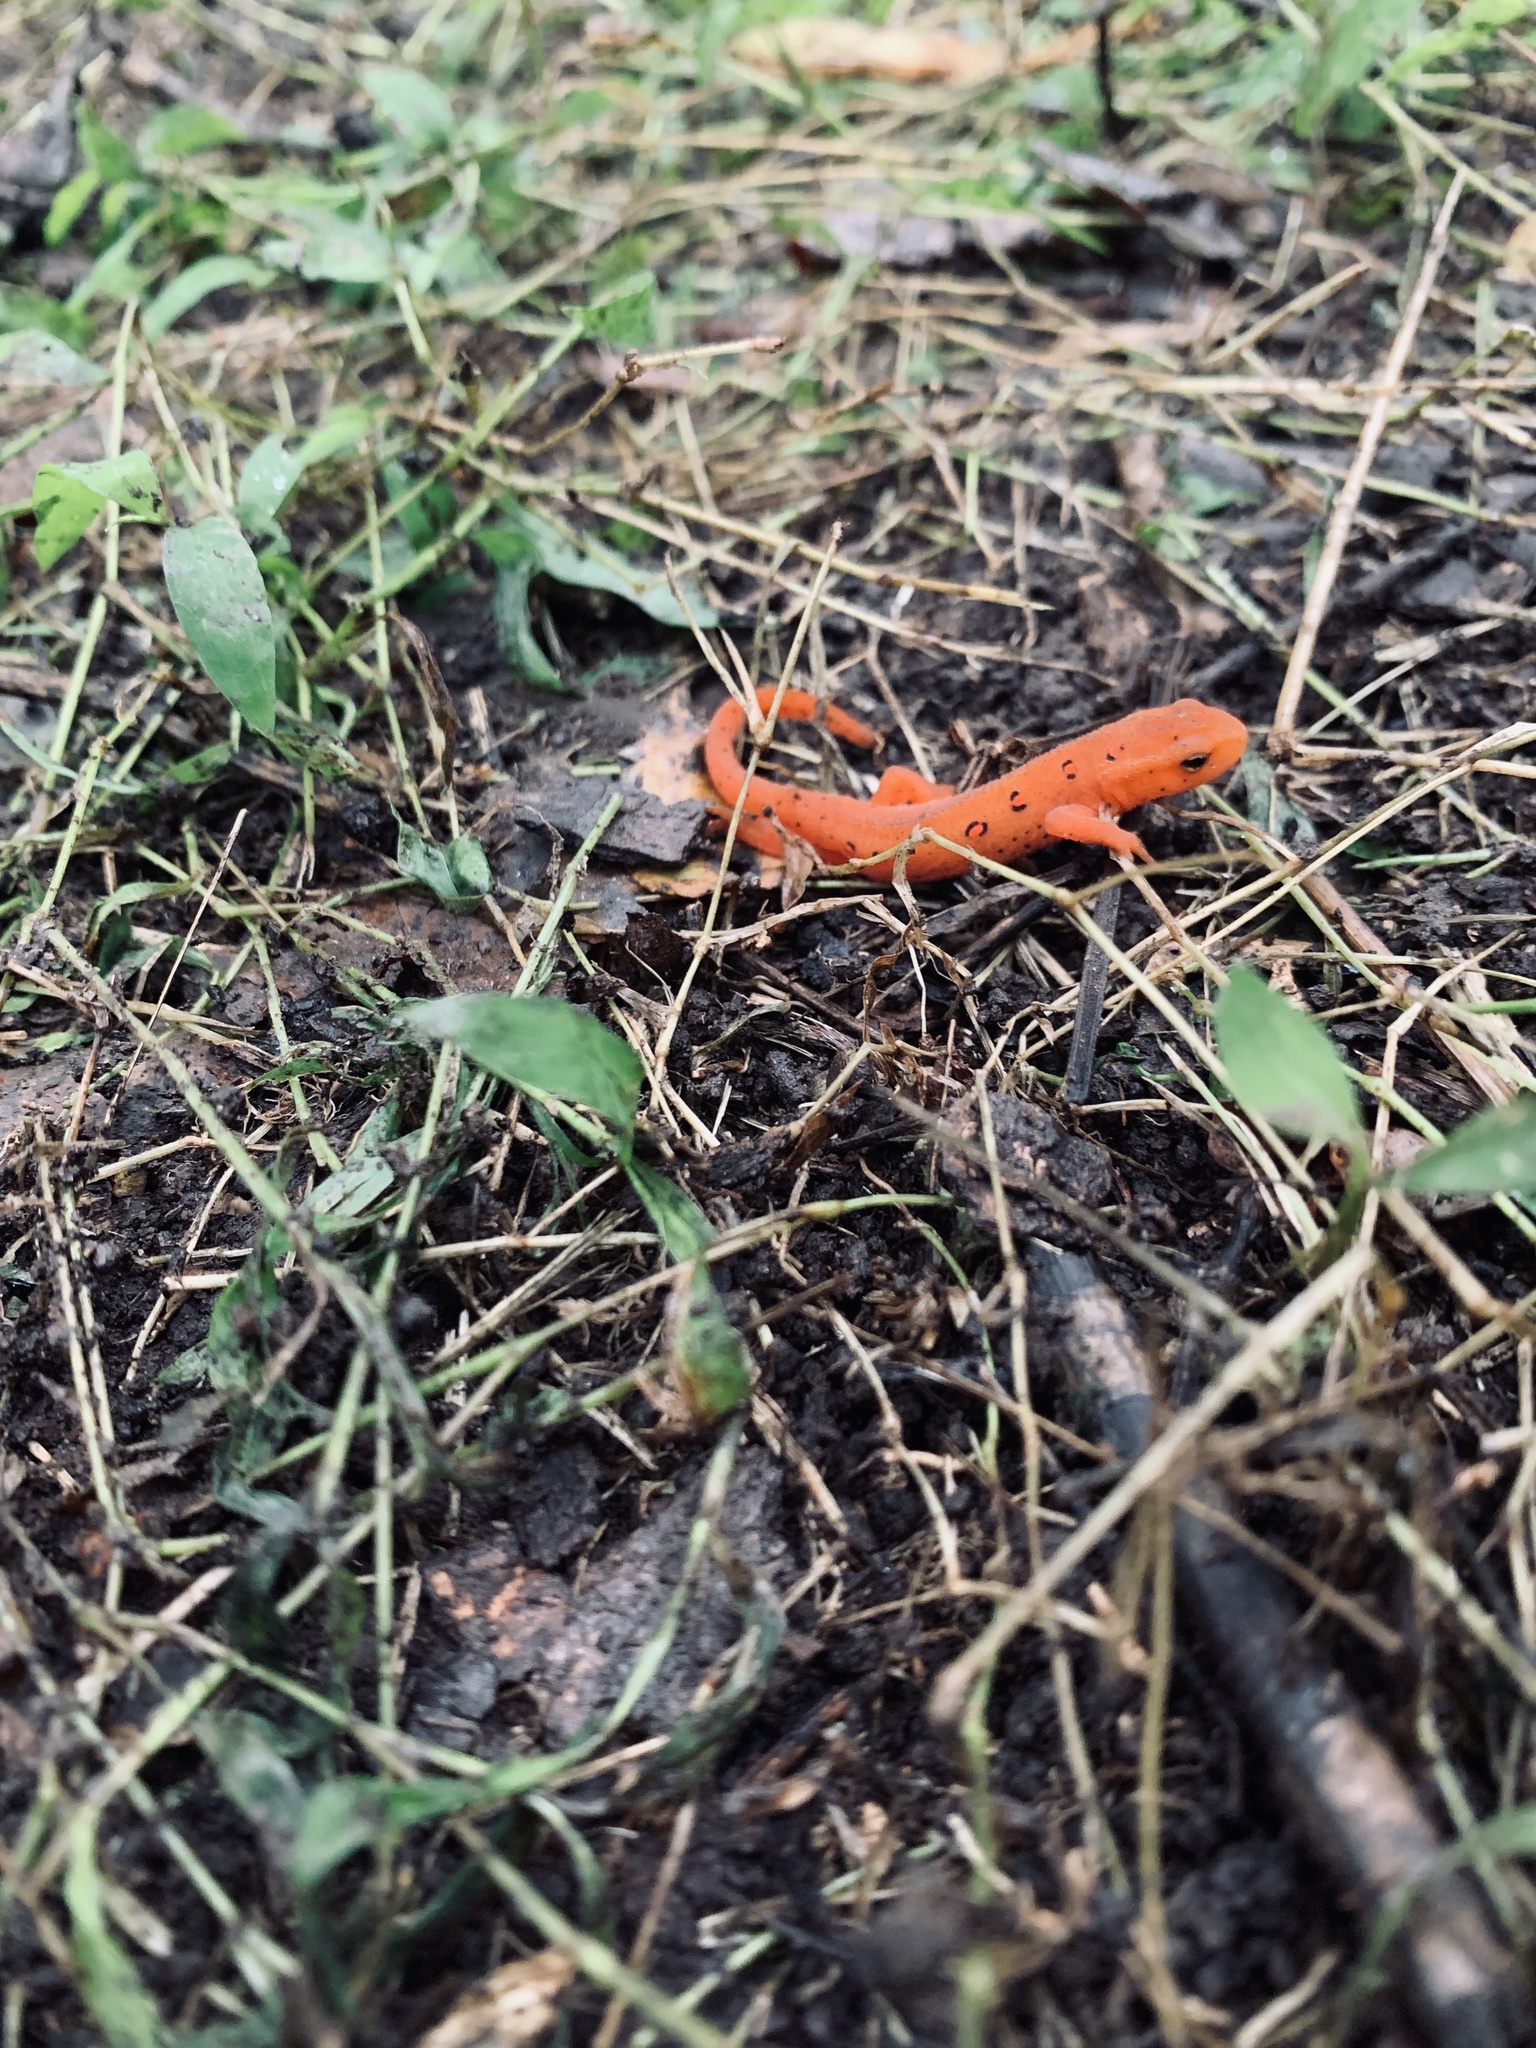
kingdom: Animalia
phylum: Chordata
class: Amphibia
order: Caudata
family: Salamandridae
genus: Notophthalmus
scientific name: Notophthalmus viridescens
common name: Eastern newt
